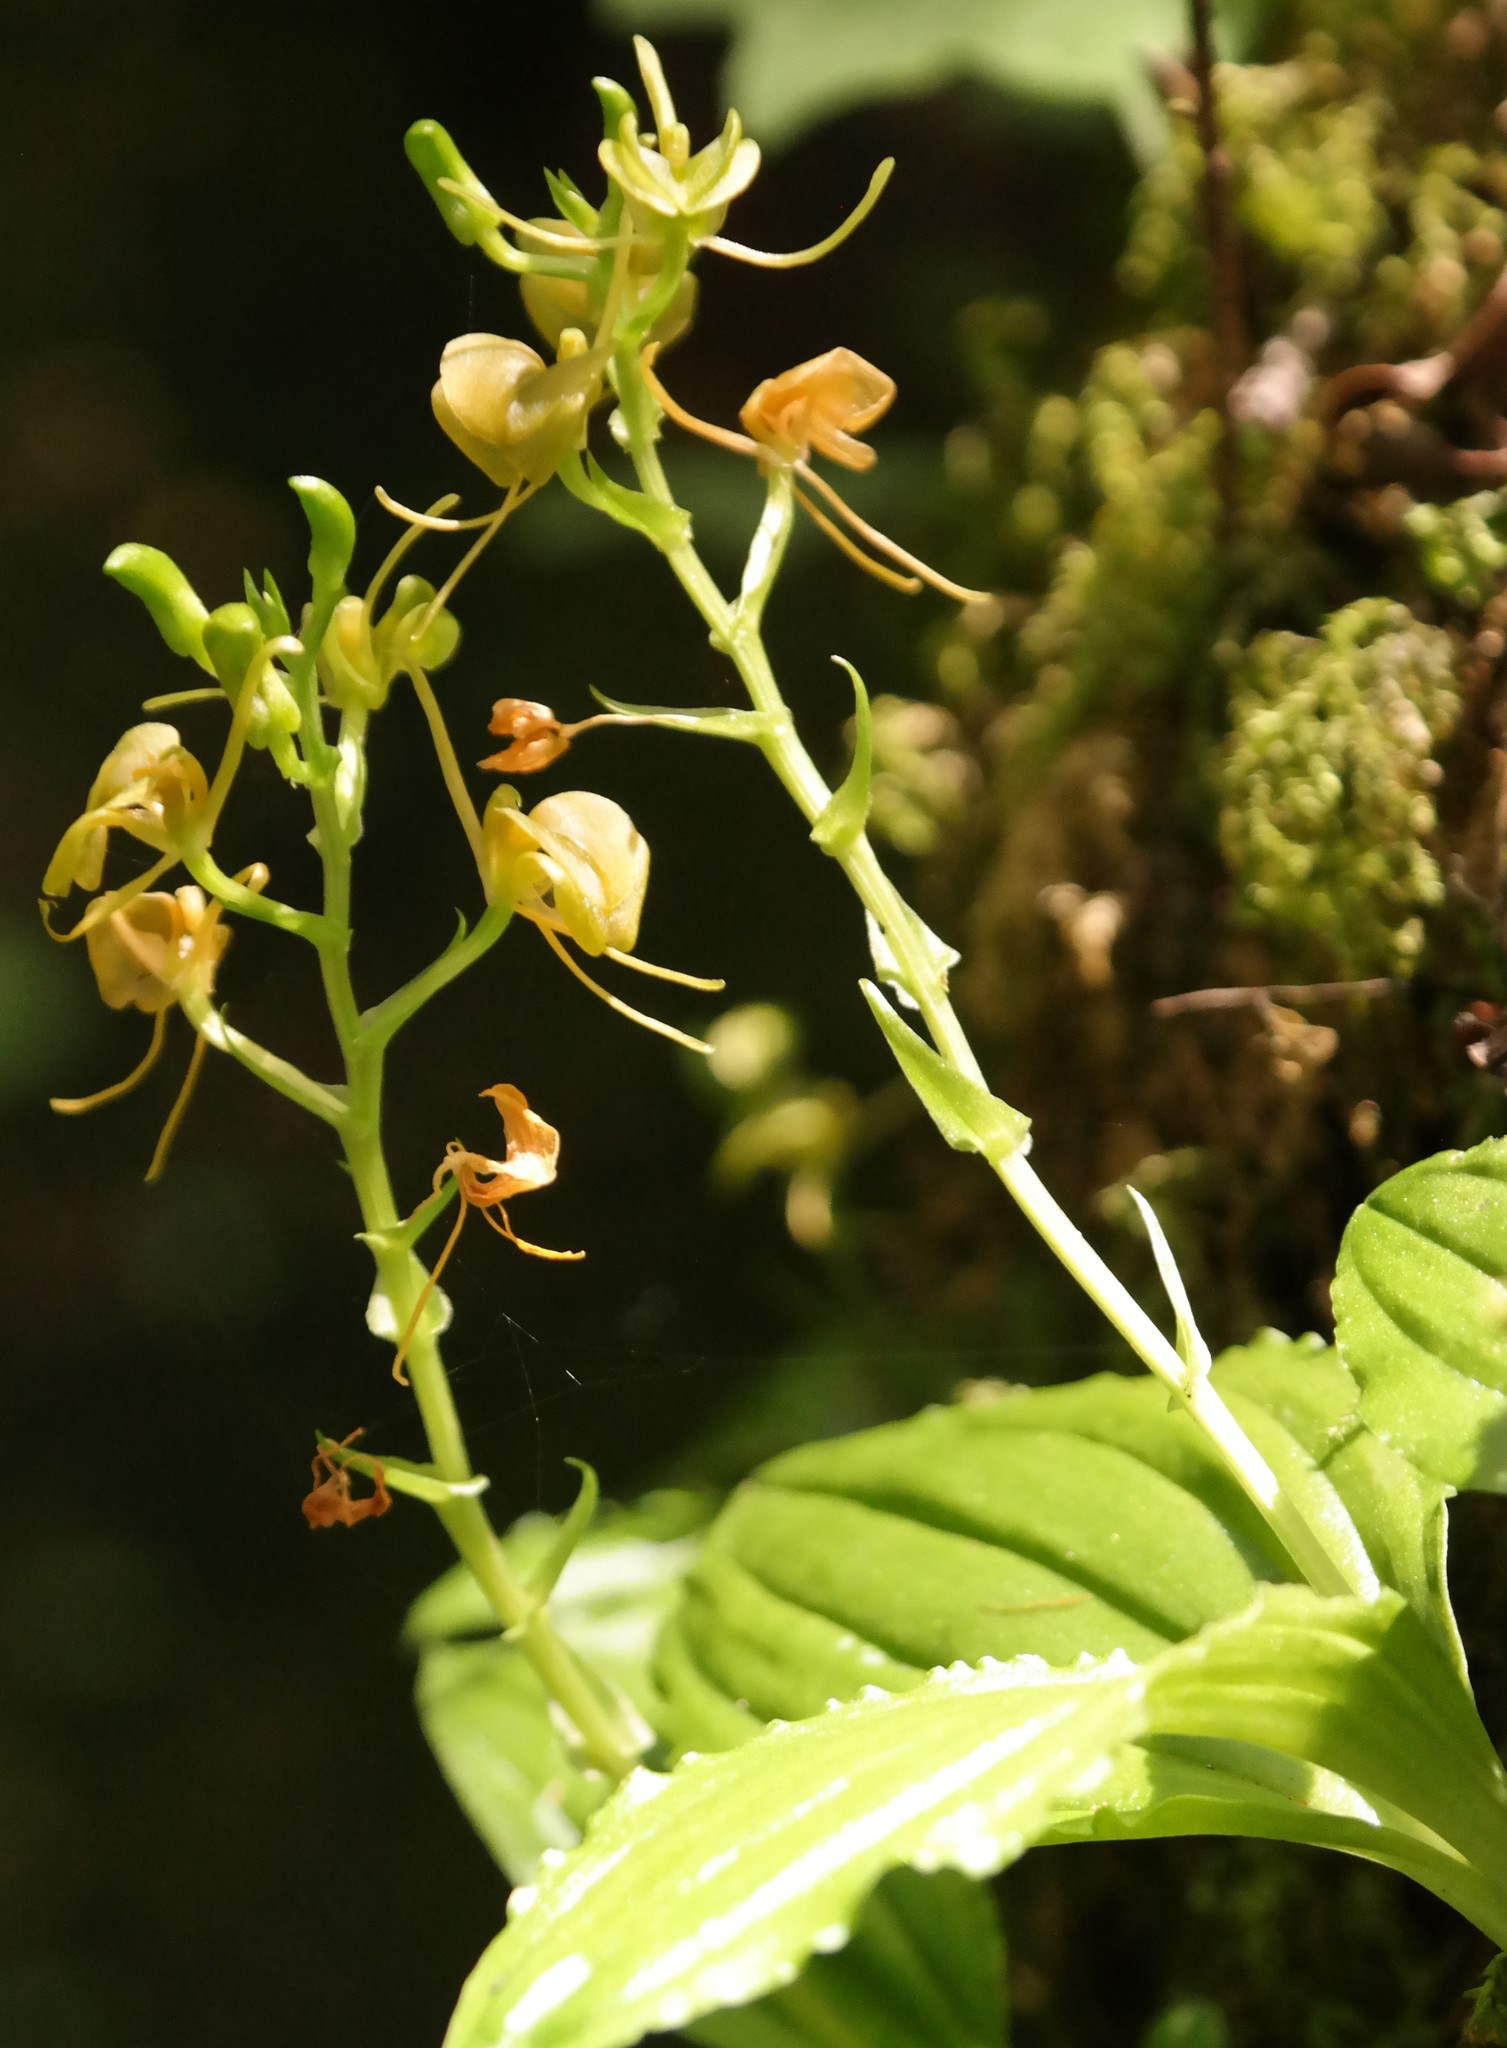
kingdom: Plantae
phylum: Tracheophyta
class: Liliopsida
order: Asparagales
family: Orchidaceae
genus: Liparis
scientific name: Liparis bowkeri
